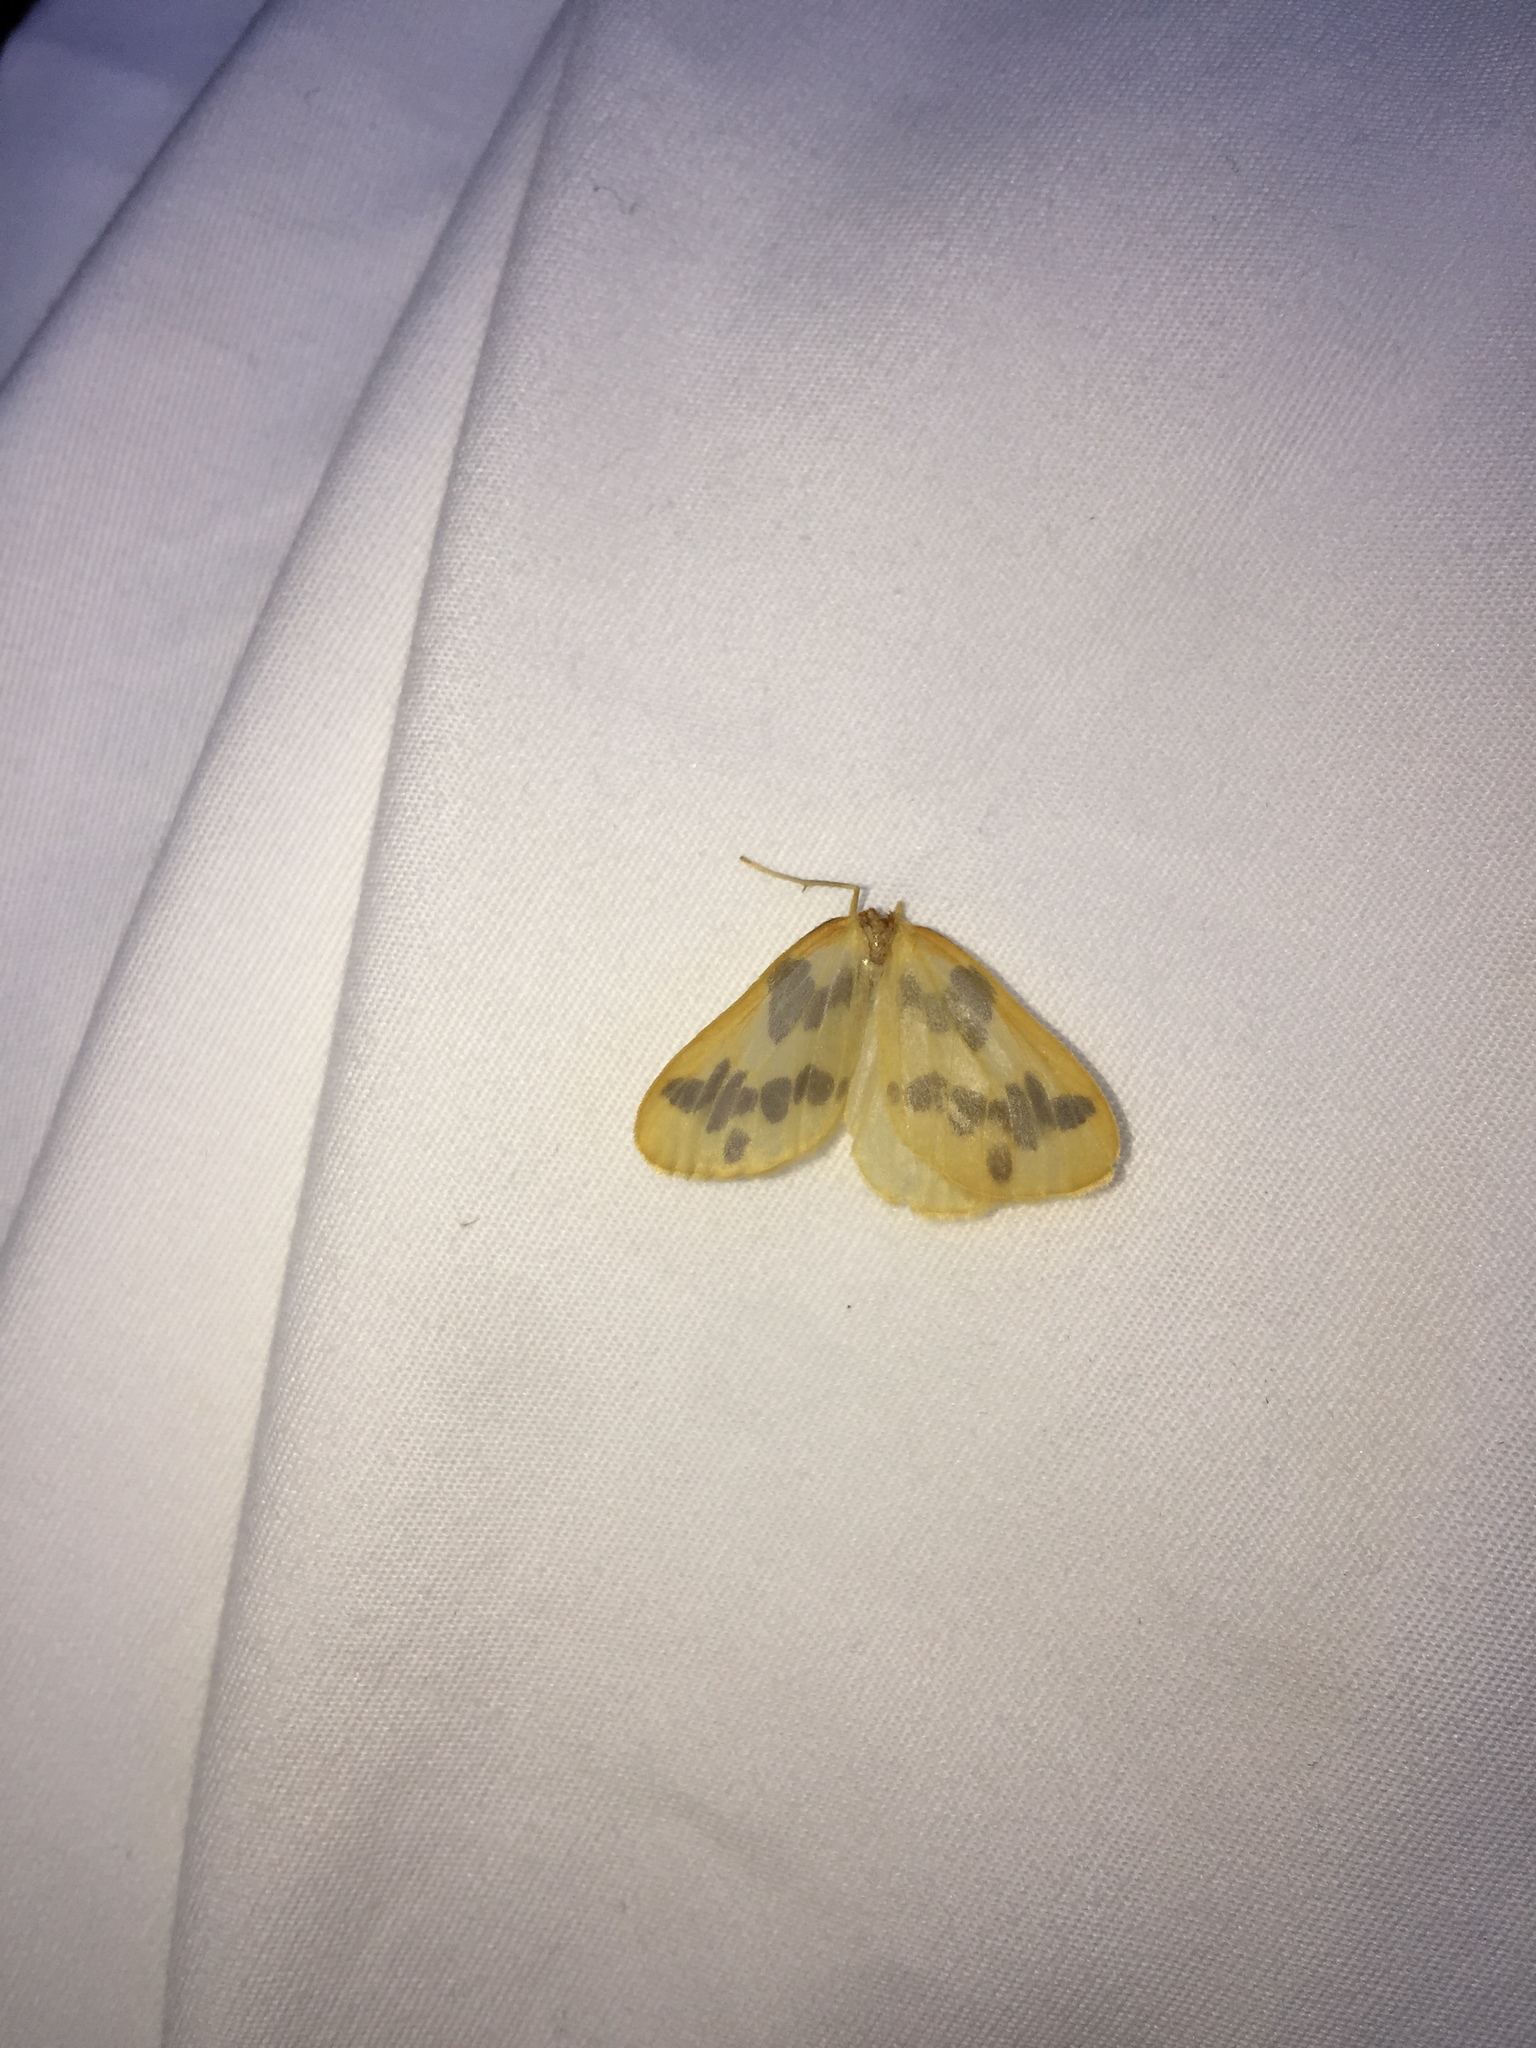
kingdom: Animalia
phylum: Arthropoda
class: Insecta
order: Lepidoptera
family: Geometridae
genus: Eubaphe
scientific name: Eubaphe mendica
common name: Beggar
